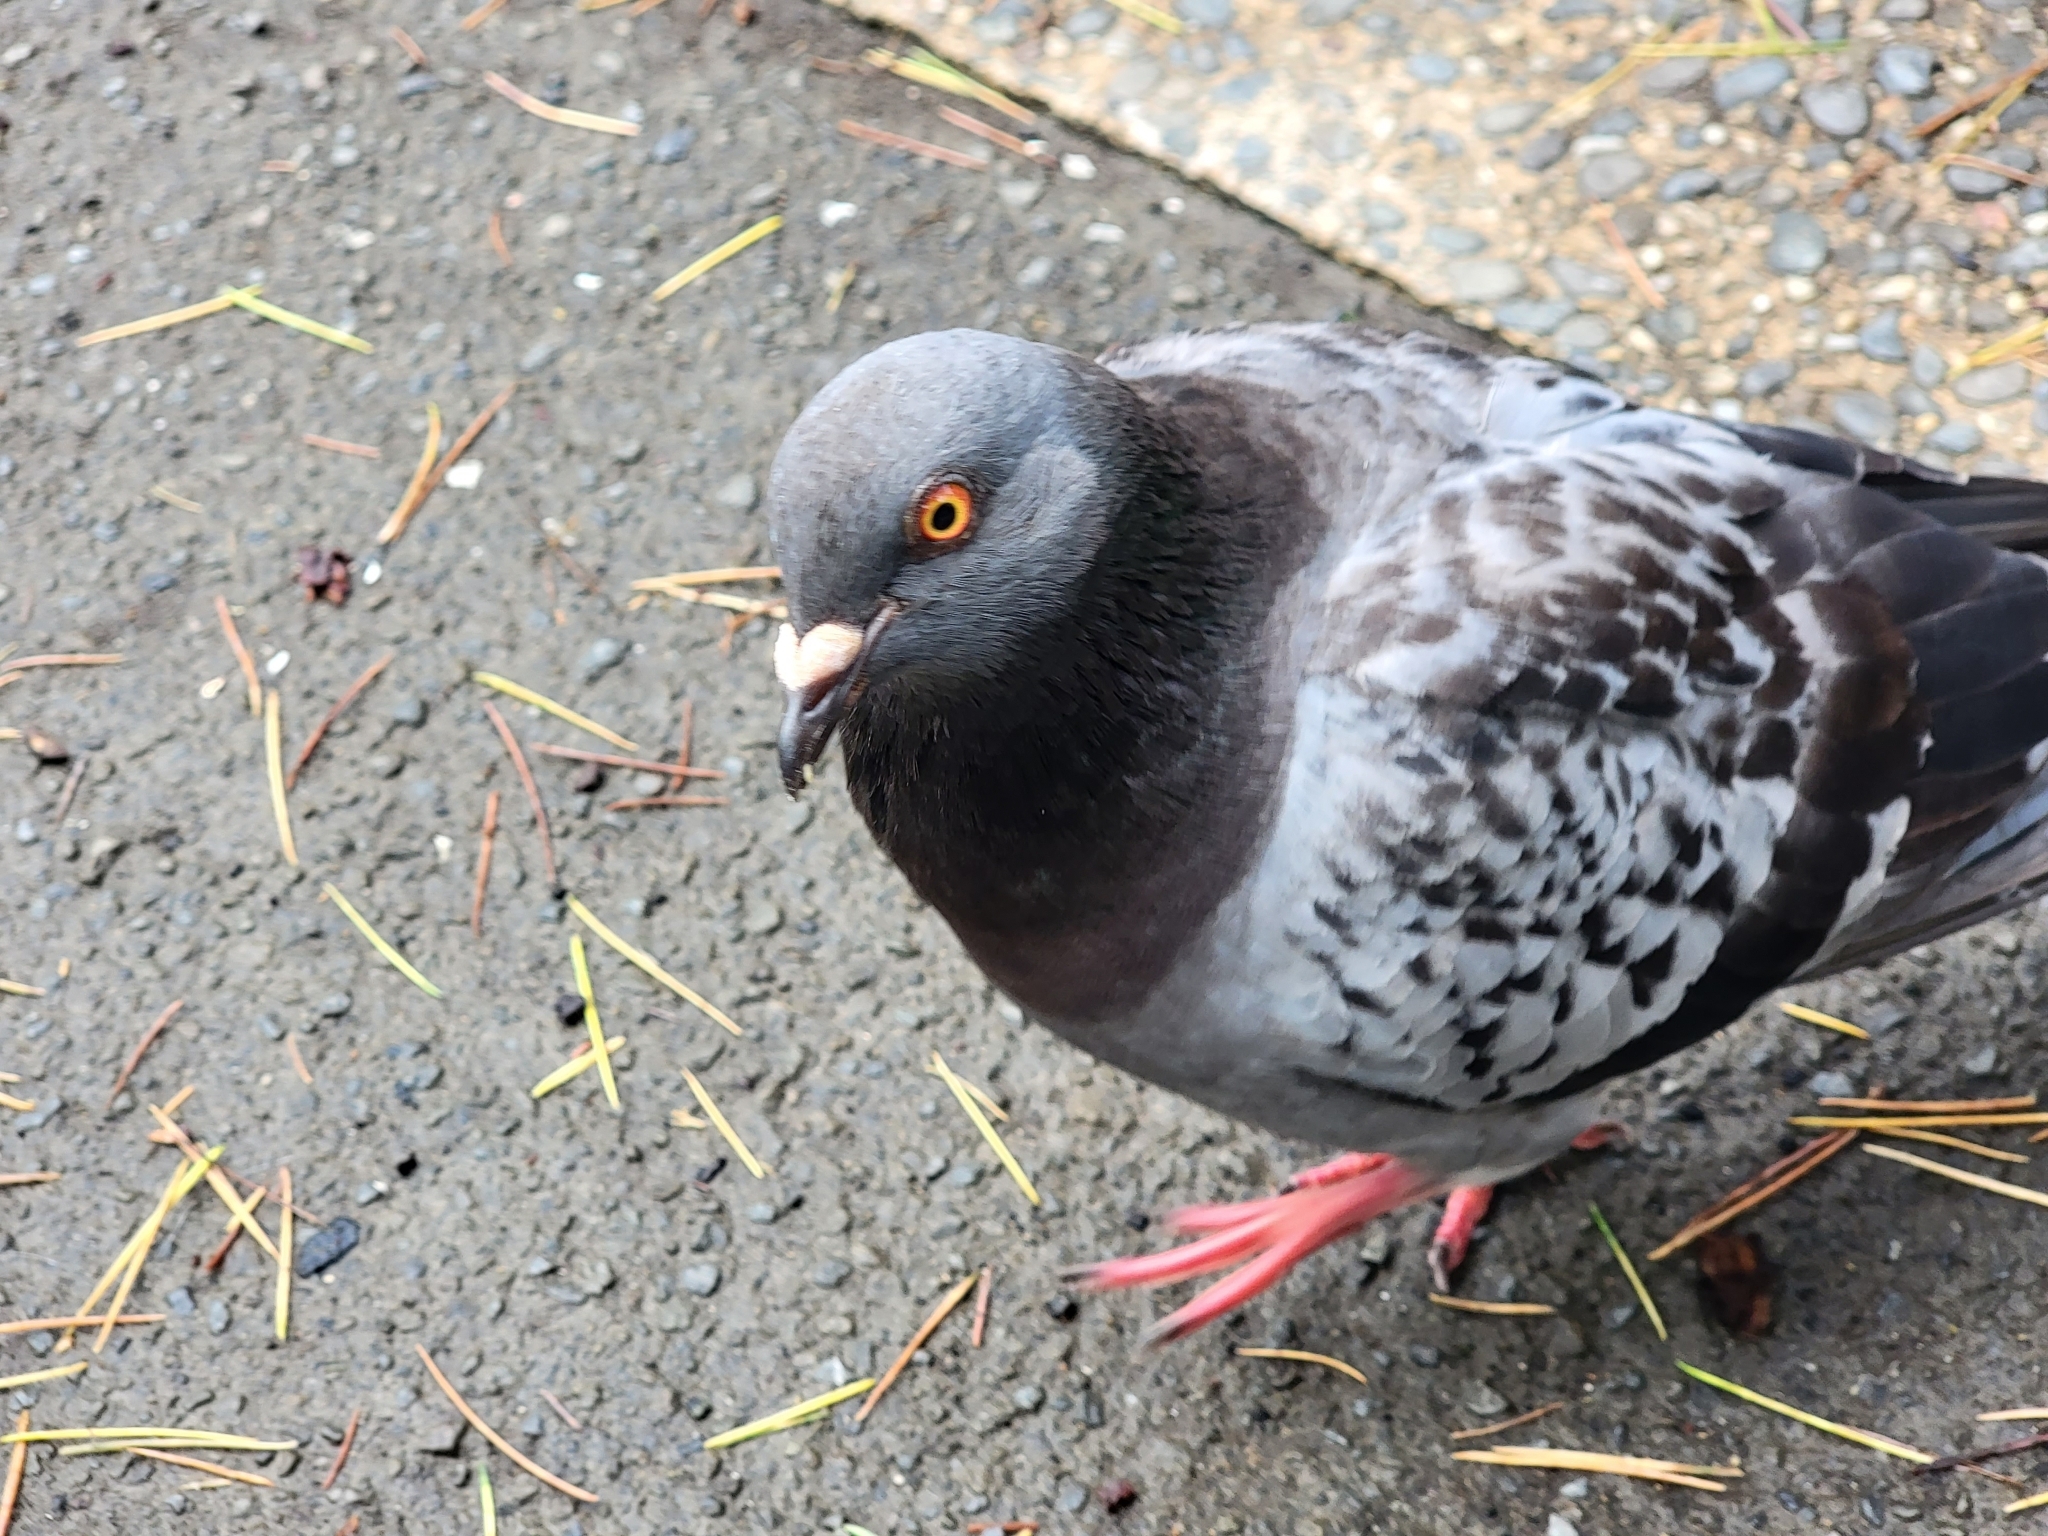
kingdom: Animalia
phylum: Chordata
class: Aves
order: Columbiformes
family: Columbidae
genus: Columba
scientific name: Columba livia
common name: Rock pigeon
